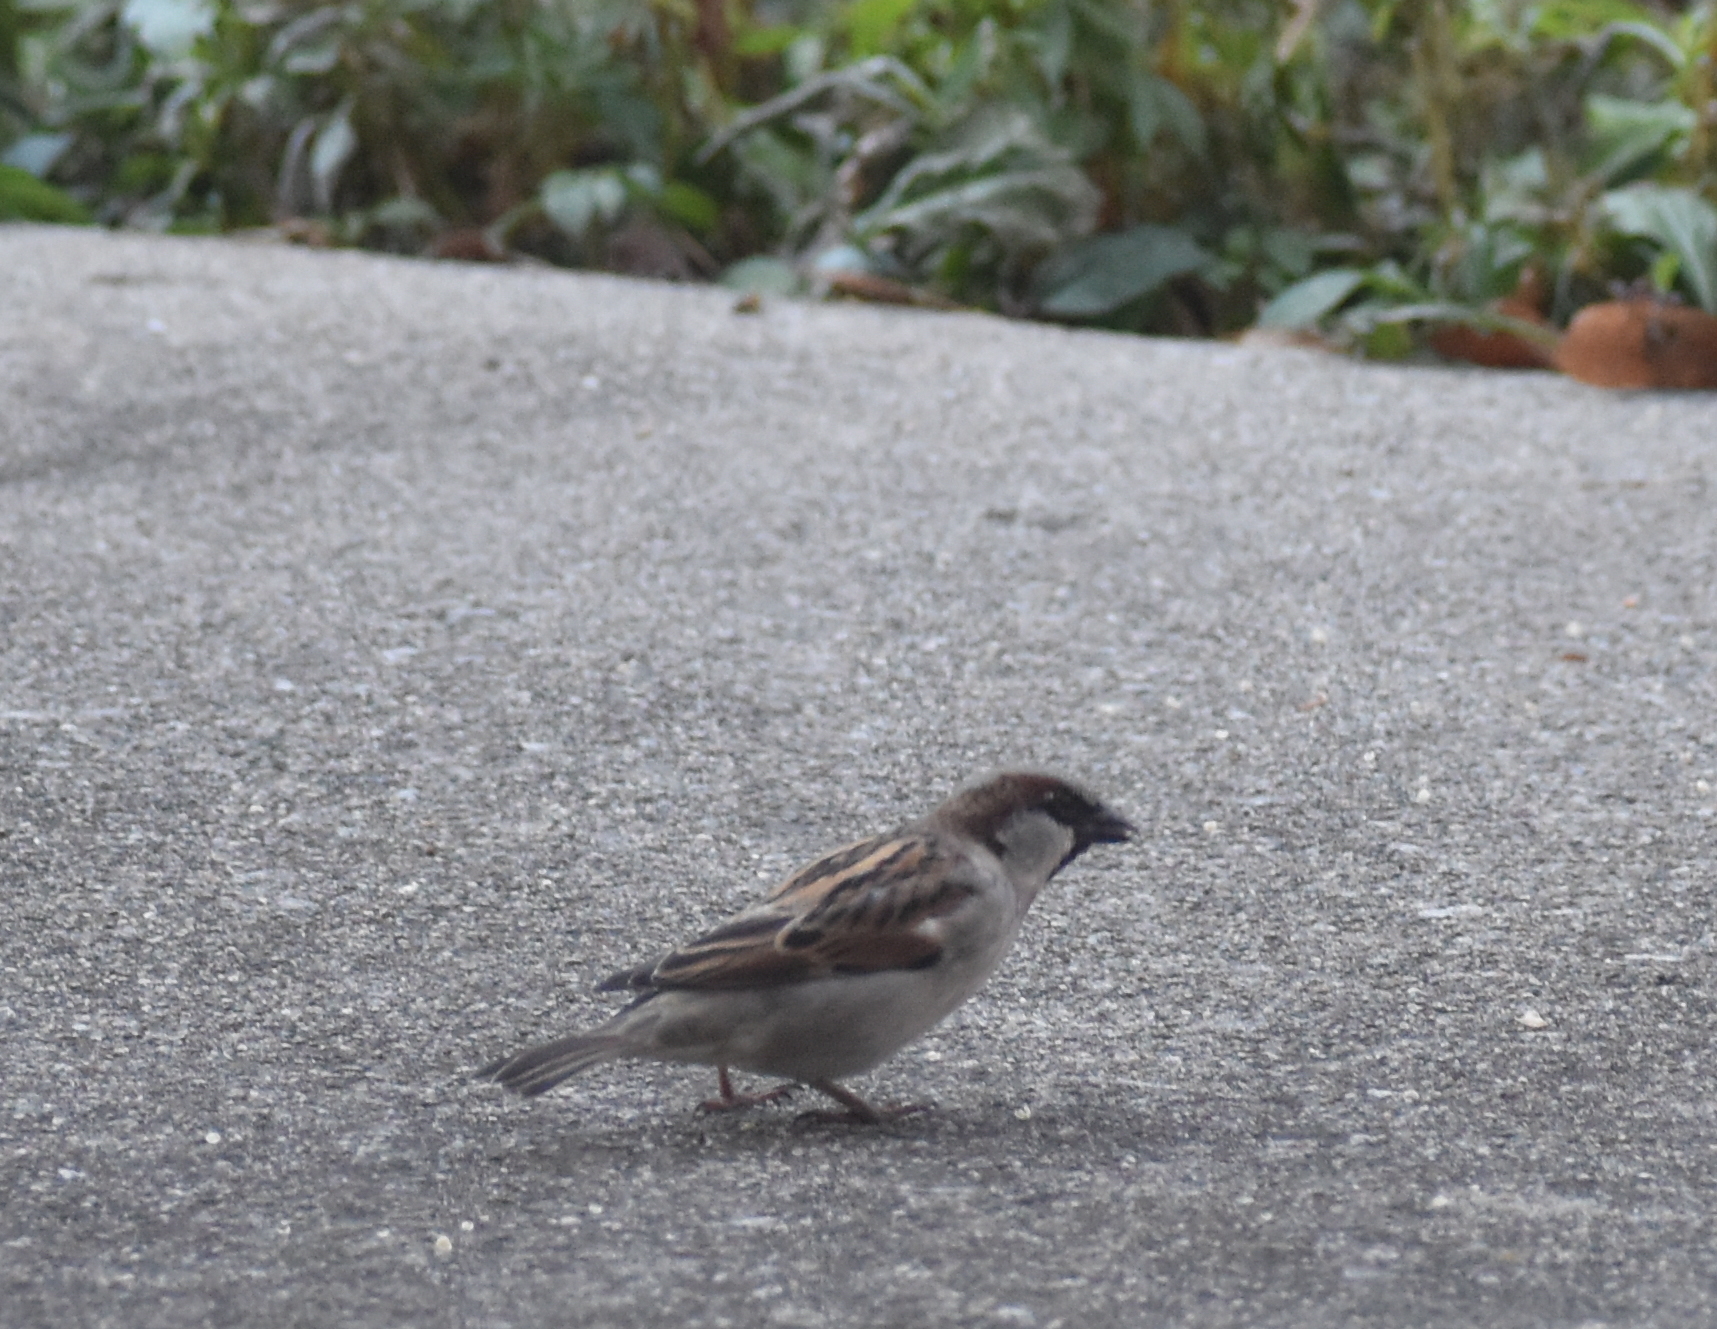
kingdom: Animalia
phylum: Chordata
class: Aves
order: Passeriformes
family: Passeridae
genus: Passer
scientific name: Passer domesticus
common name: House sparrow
